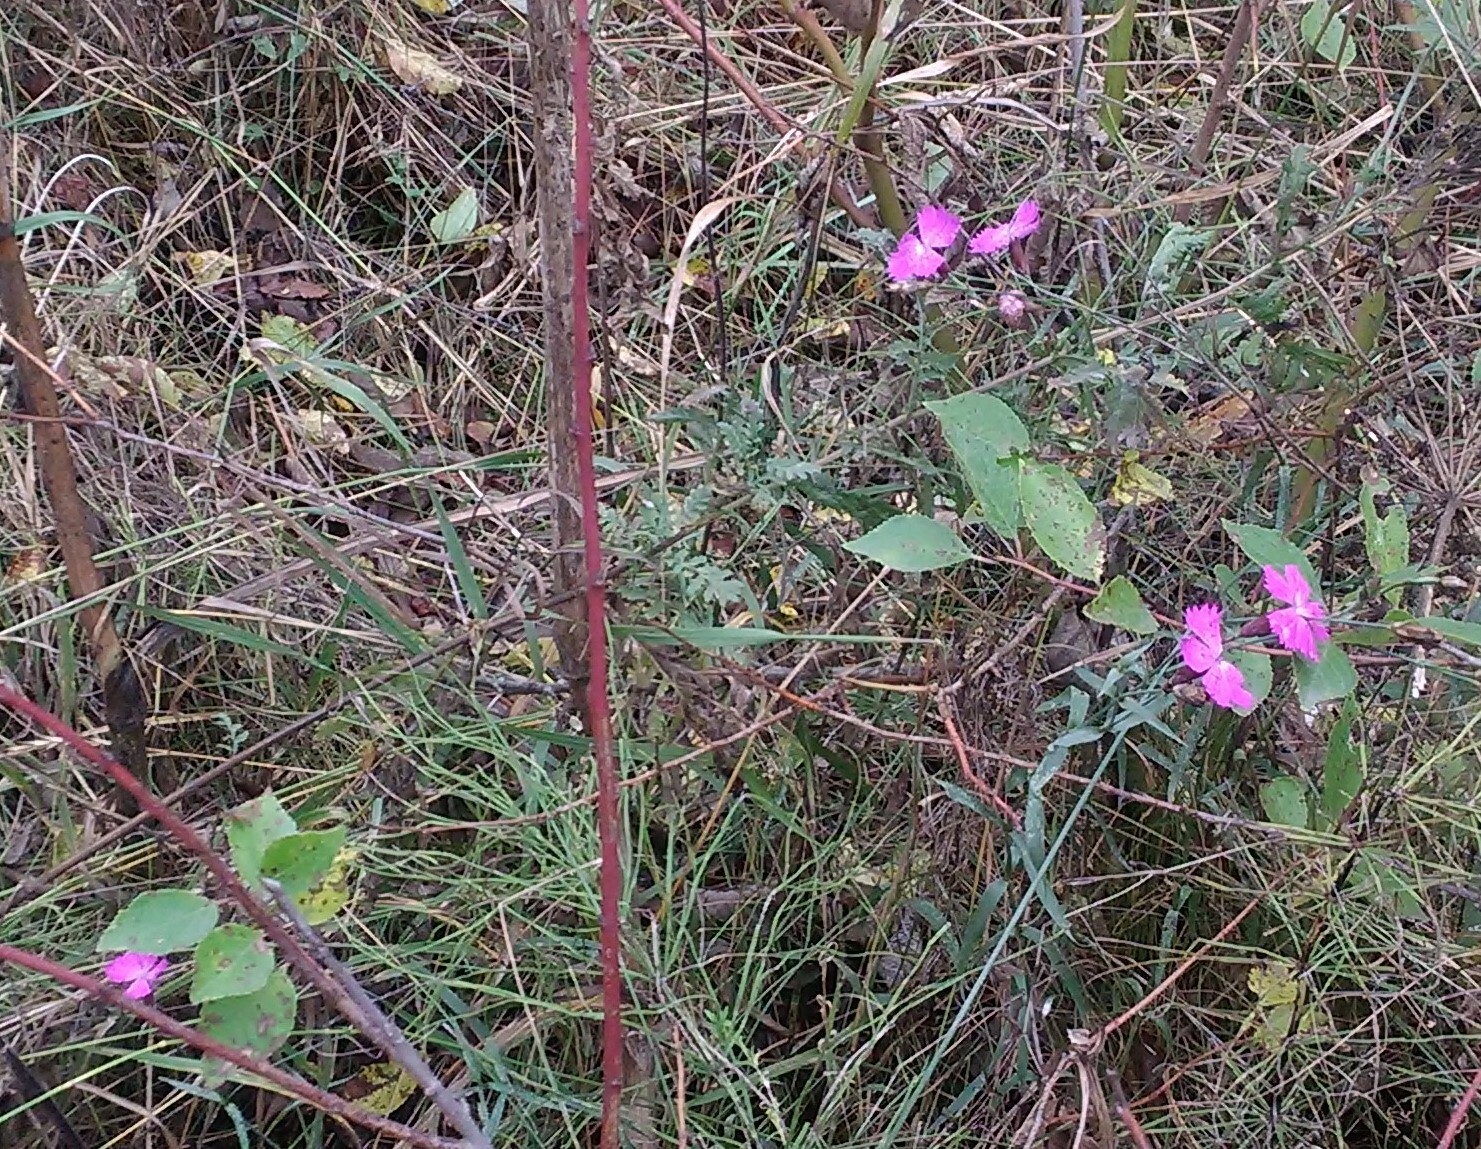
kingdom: Plantae
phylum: Tracheophyta
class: Magnoliopsida
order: Caryophyllales
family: Caryophyllaceae
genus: Dianthus
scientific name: Dianthus chinensis
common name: Rainbow pink
